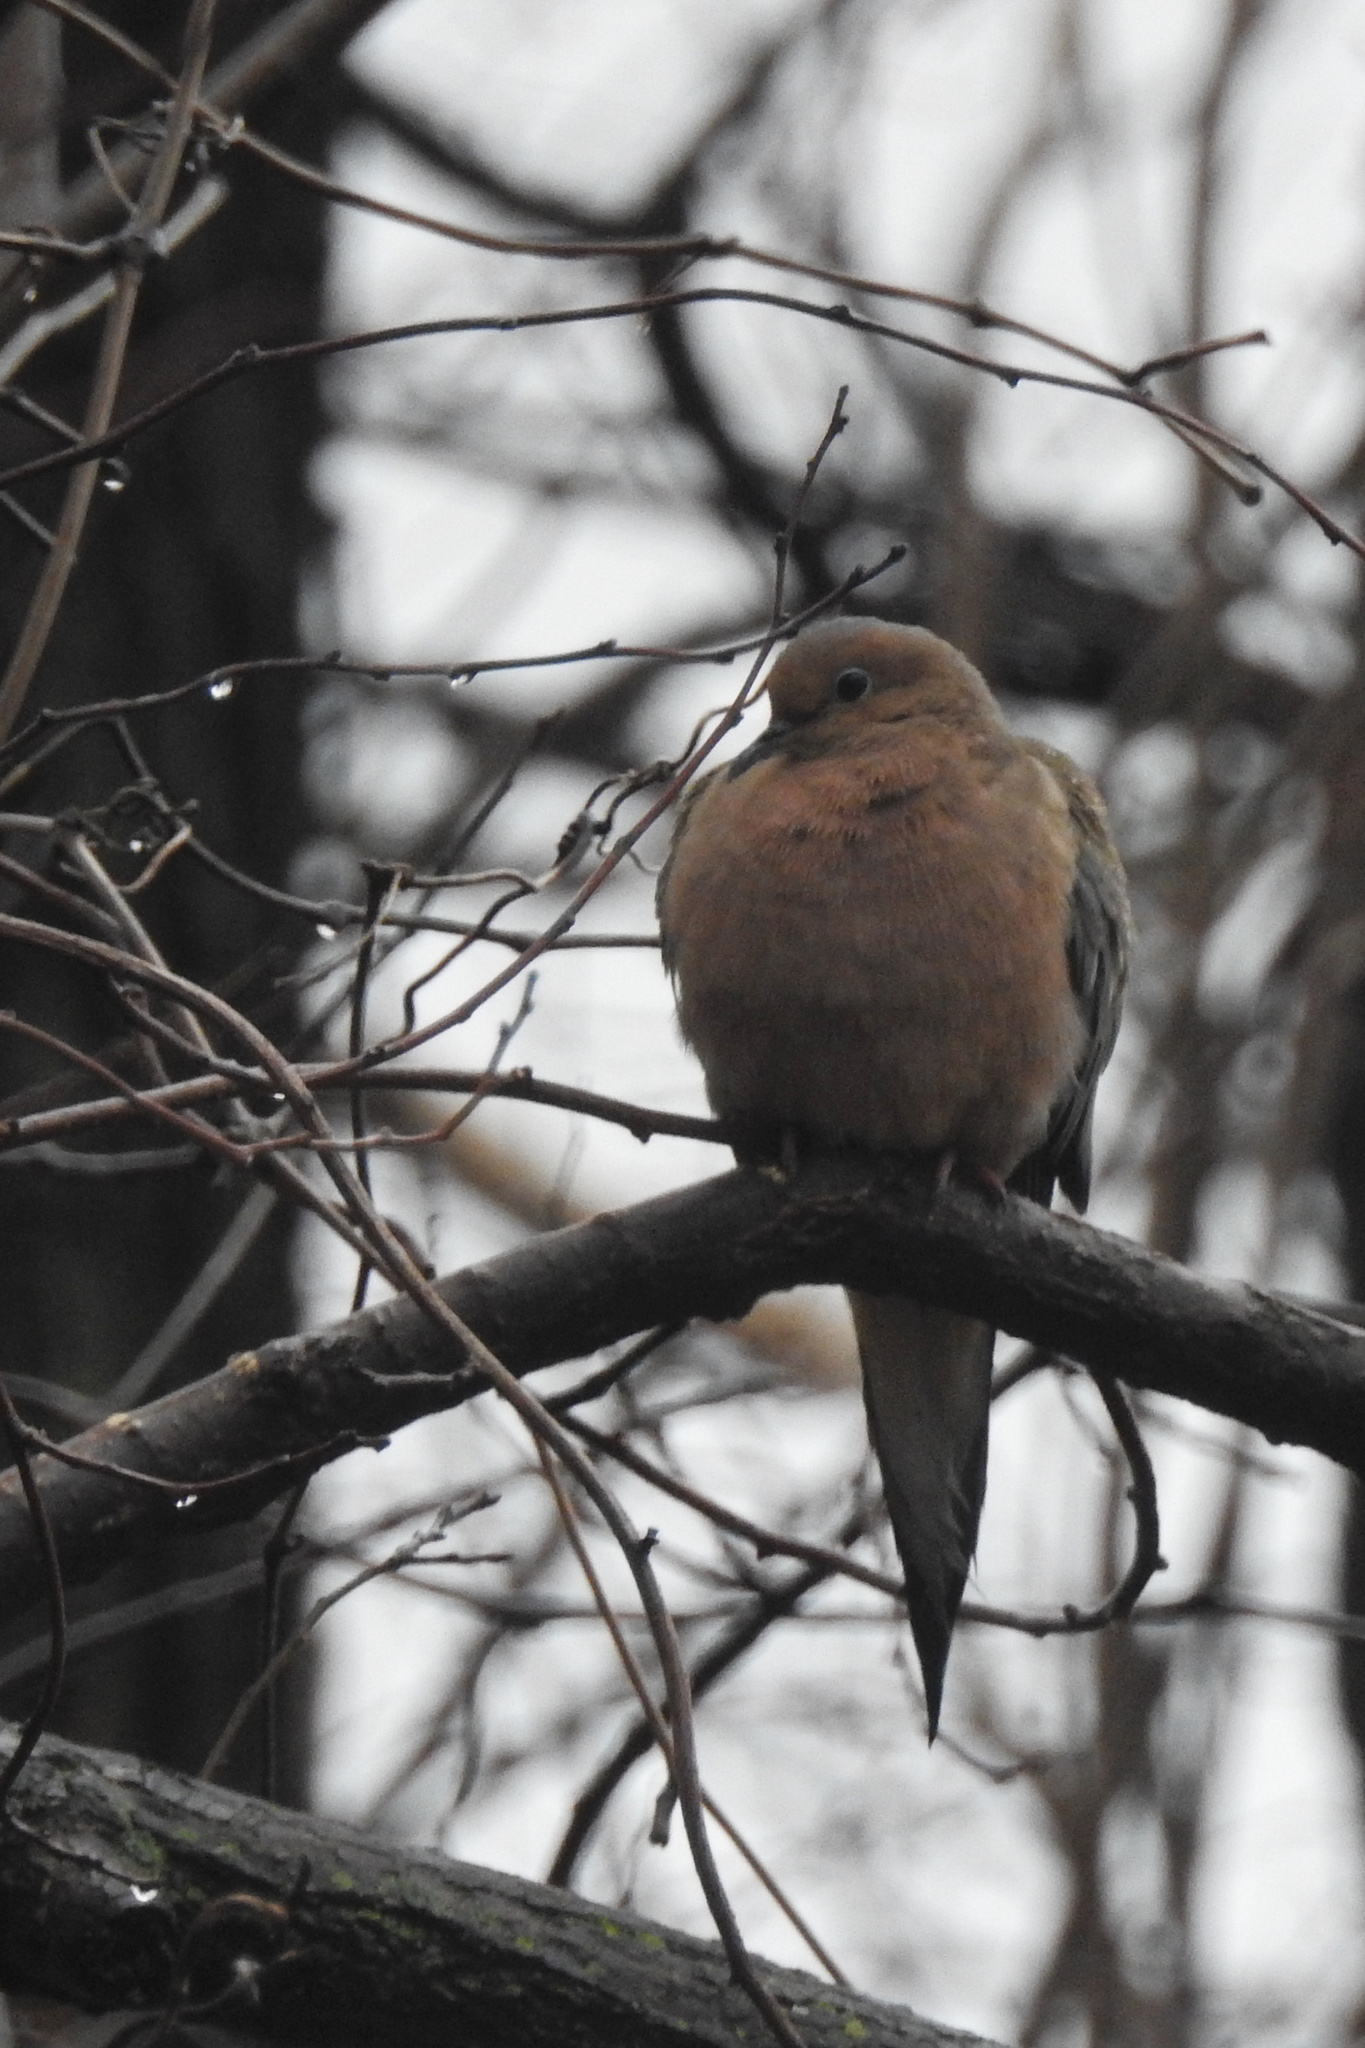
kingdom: Animalia
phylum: Chordata
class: Aves
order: Columbiformes
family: Columbidae
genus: Zenaida
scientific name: Zenaida macroura
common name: Mourning dove
